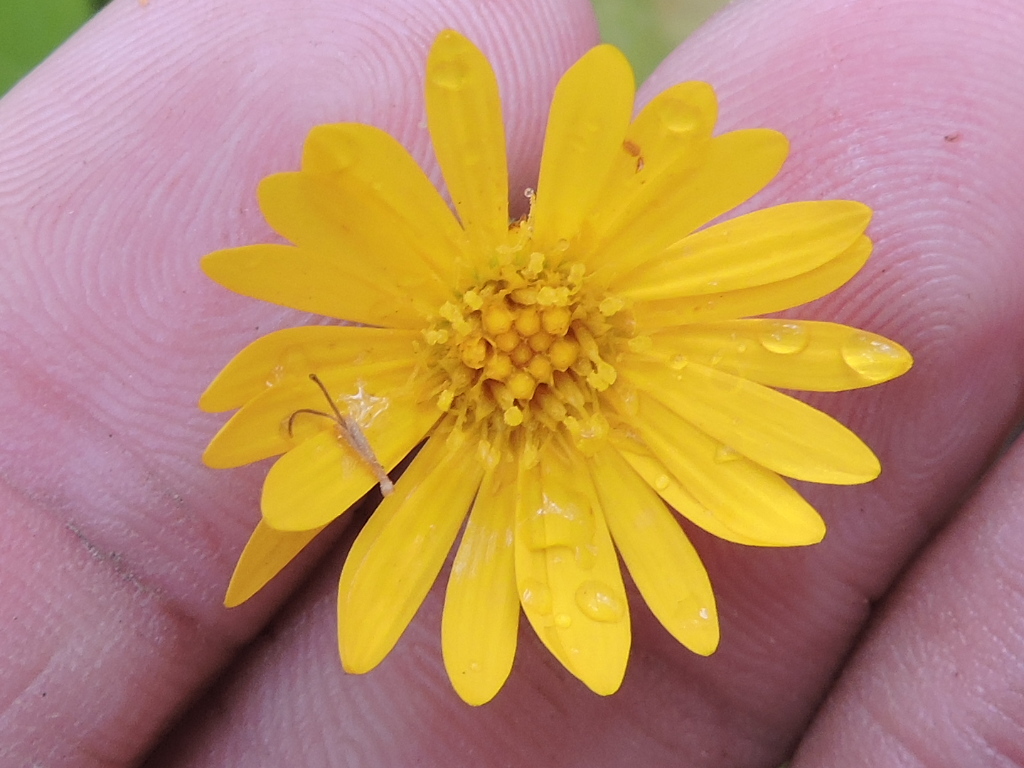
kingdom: Plantae
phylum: Tracheophyta
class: Magnoliopsida
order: Asterales
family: Asteraceae
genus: Heterotheca
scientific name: Heterotheca subaxillaris
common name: Camphorweed
